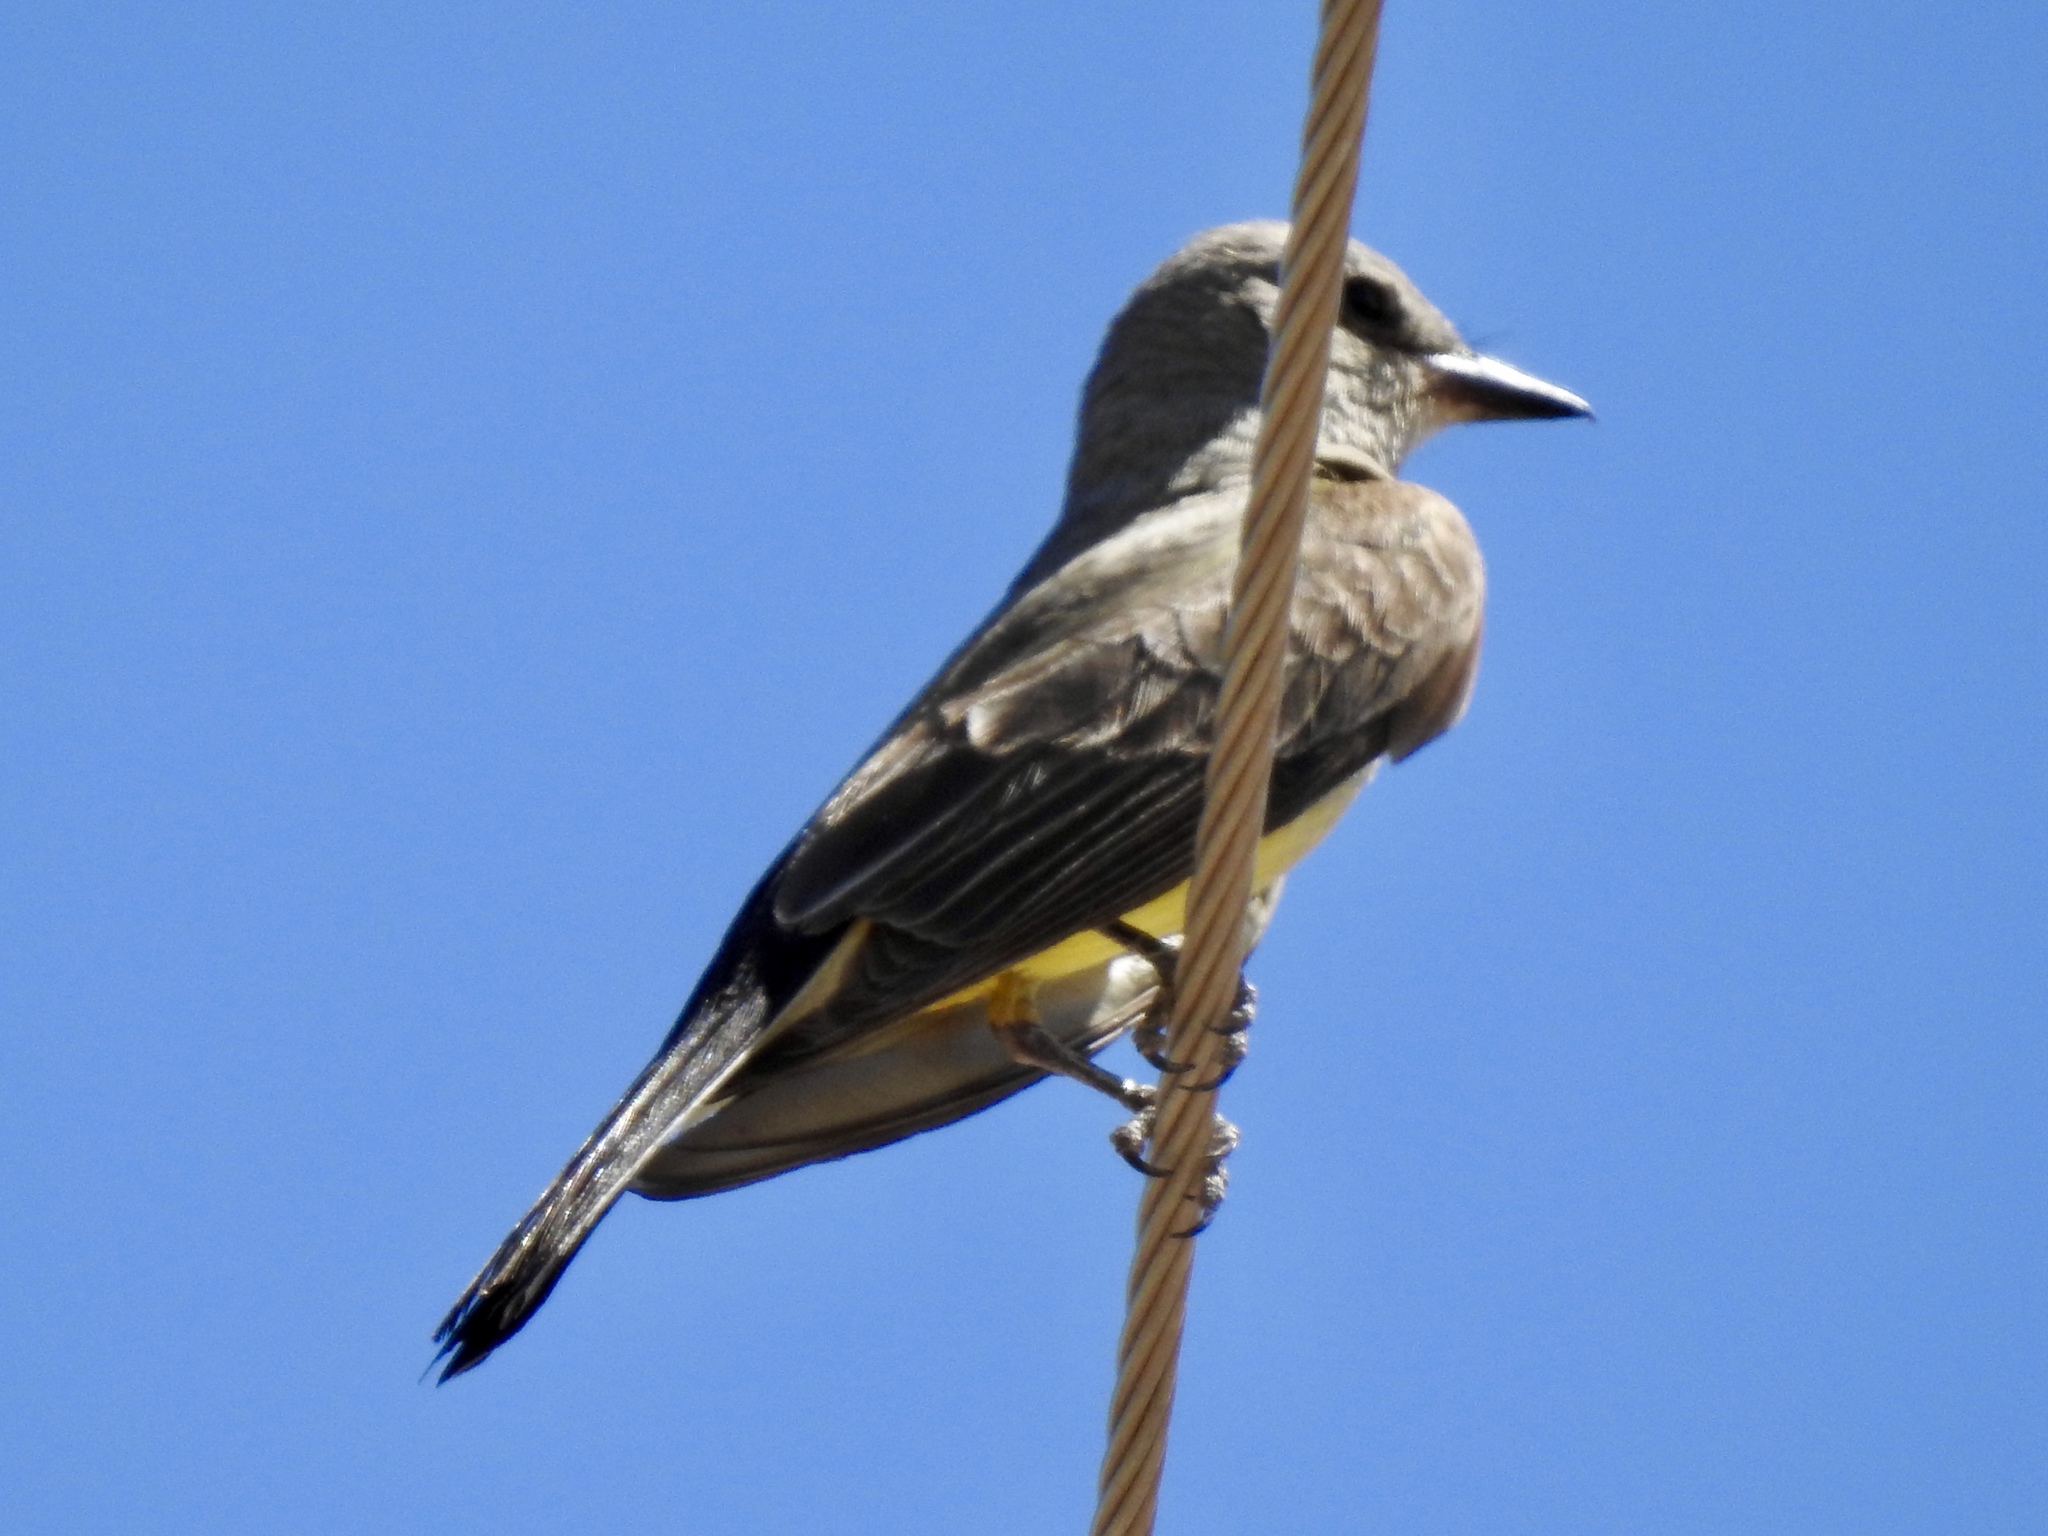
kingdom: Animalia
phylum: Chordata
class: Aves
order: Passeriformes
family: Tyrannidae
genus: Tyrannus
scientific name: Tyrannus verticalis
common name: Western kingbird
